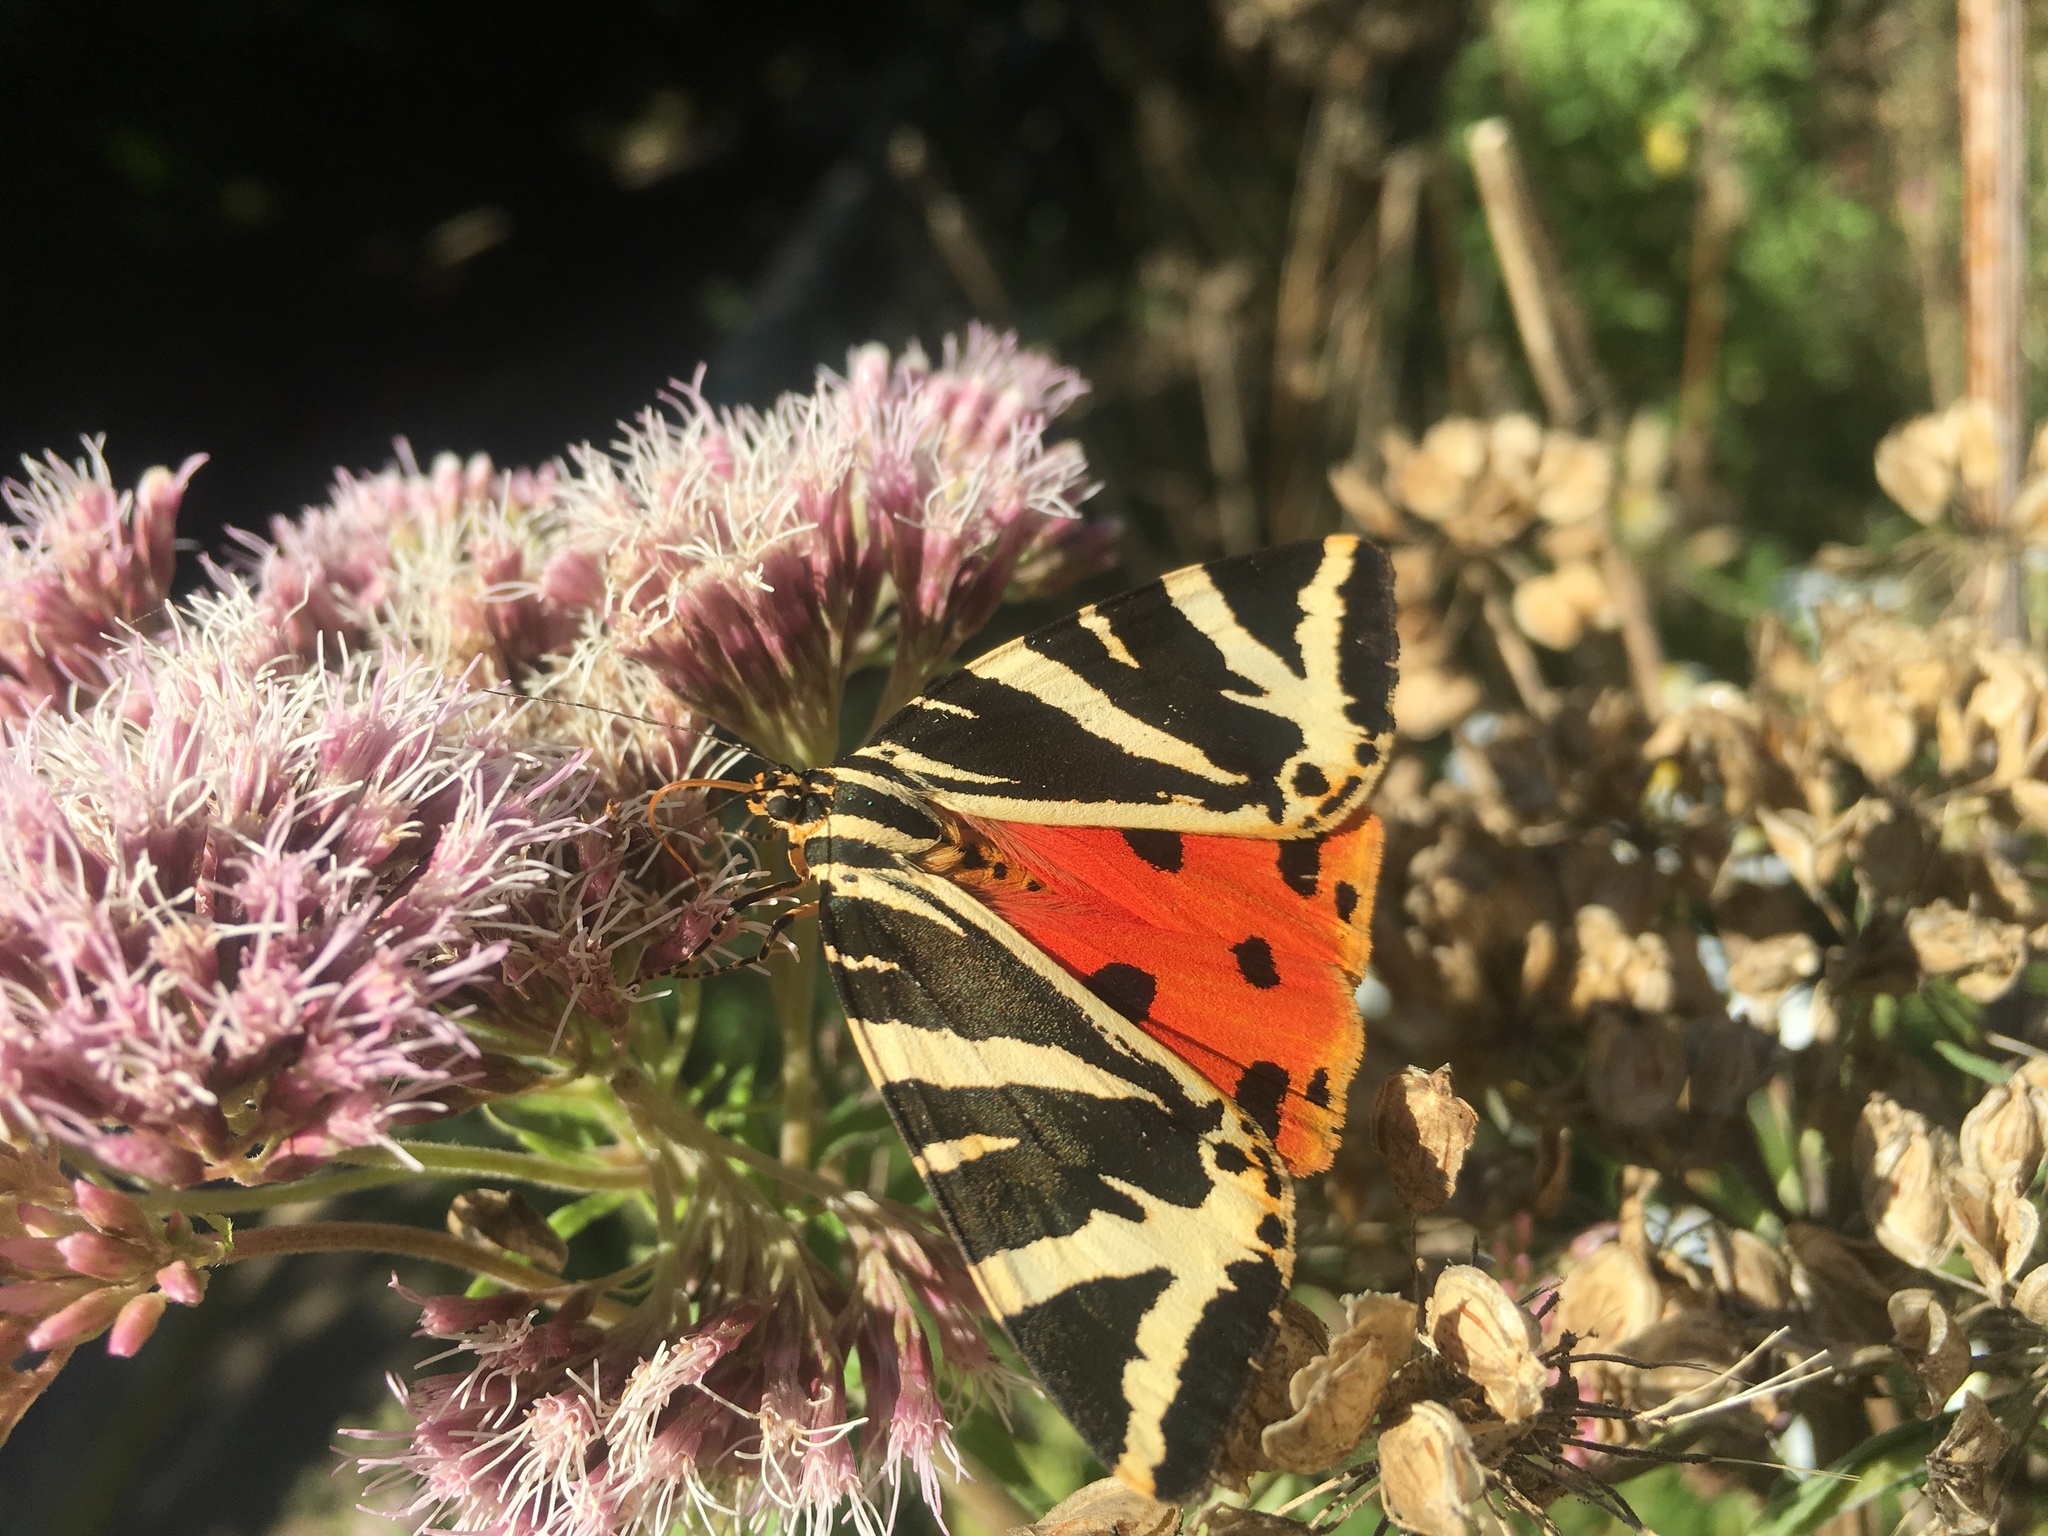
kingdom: Animalia
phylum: Arthropoda
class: Insecta
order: Lepidoptera
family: Erebidae
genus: Euplagia
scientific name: Euplagia quadripunctaria
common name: Jersey tiger
